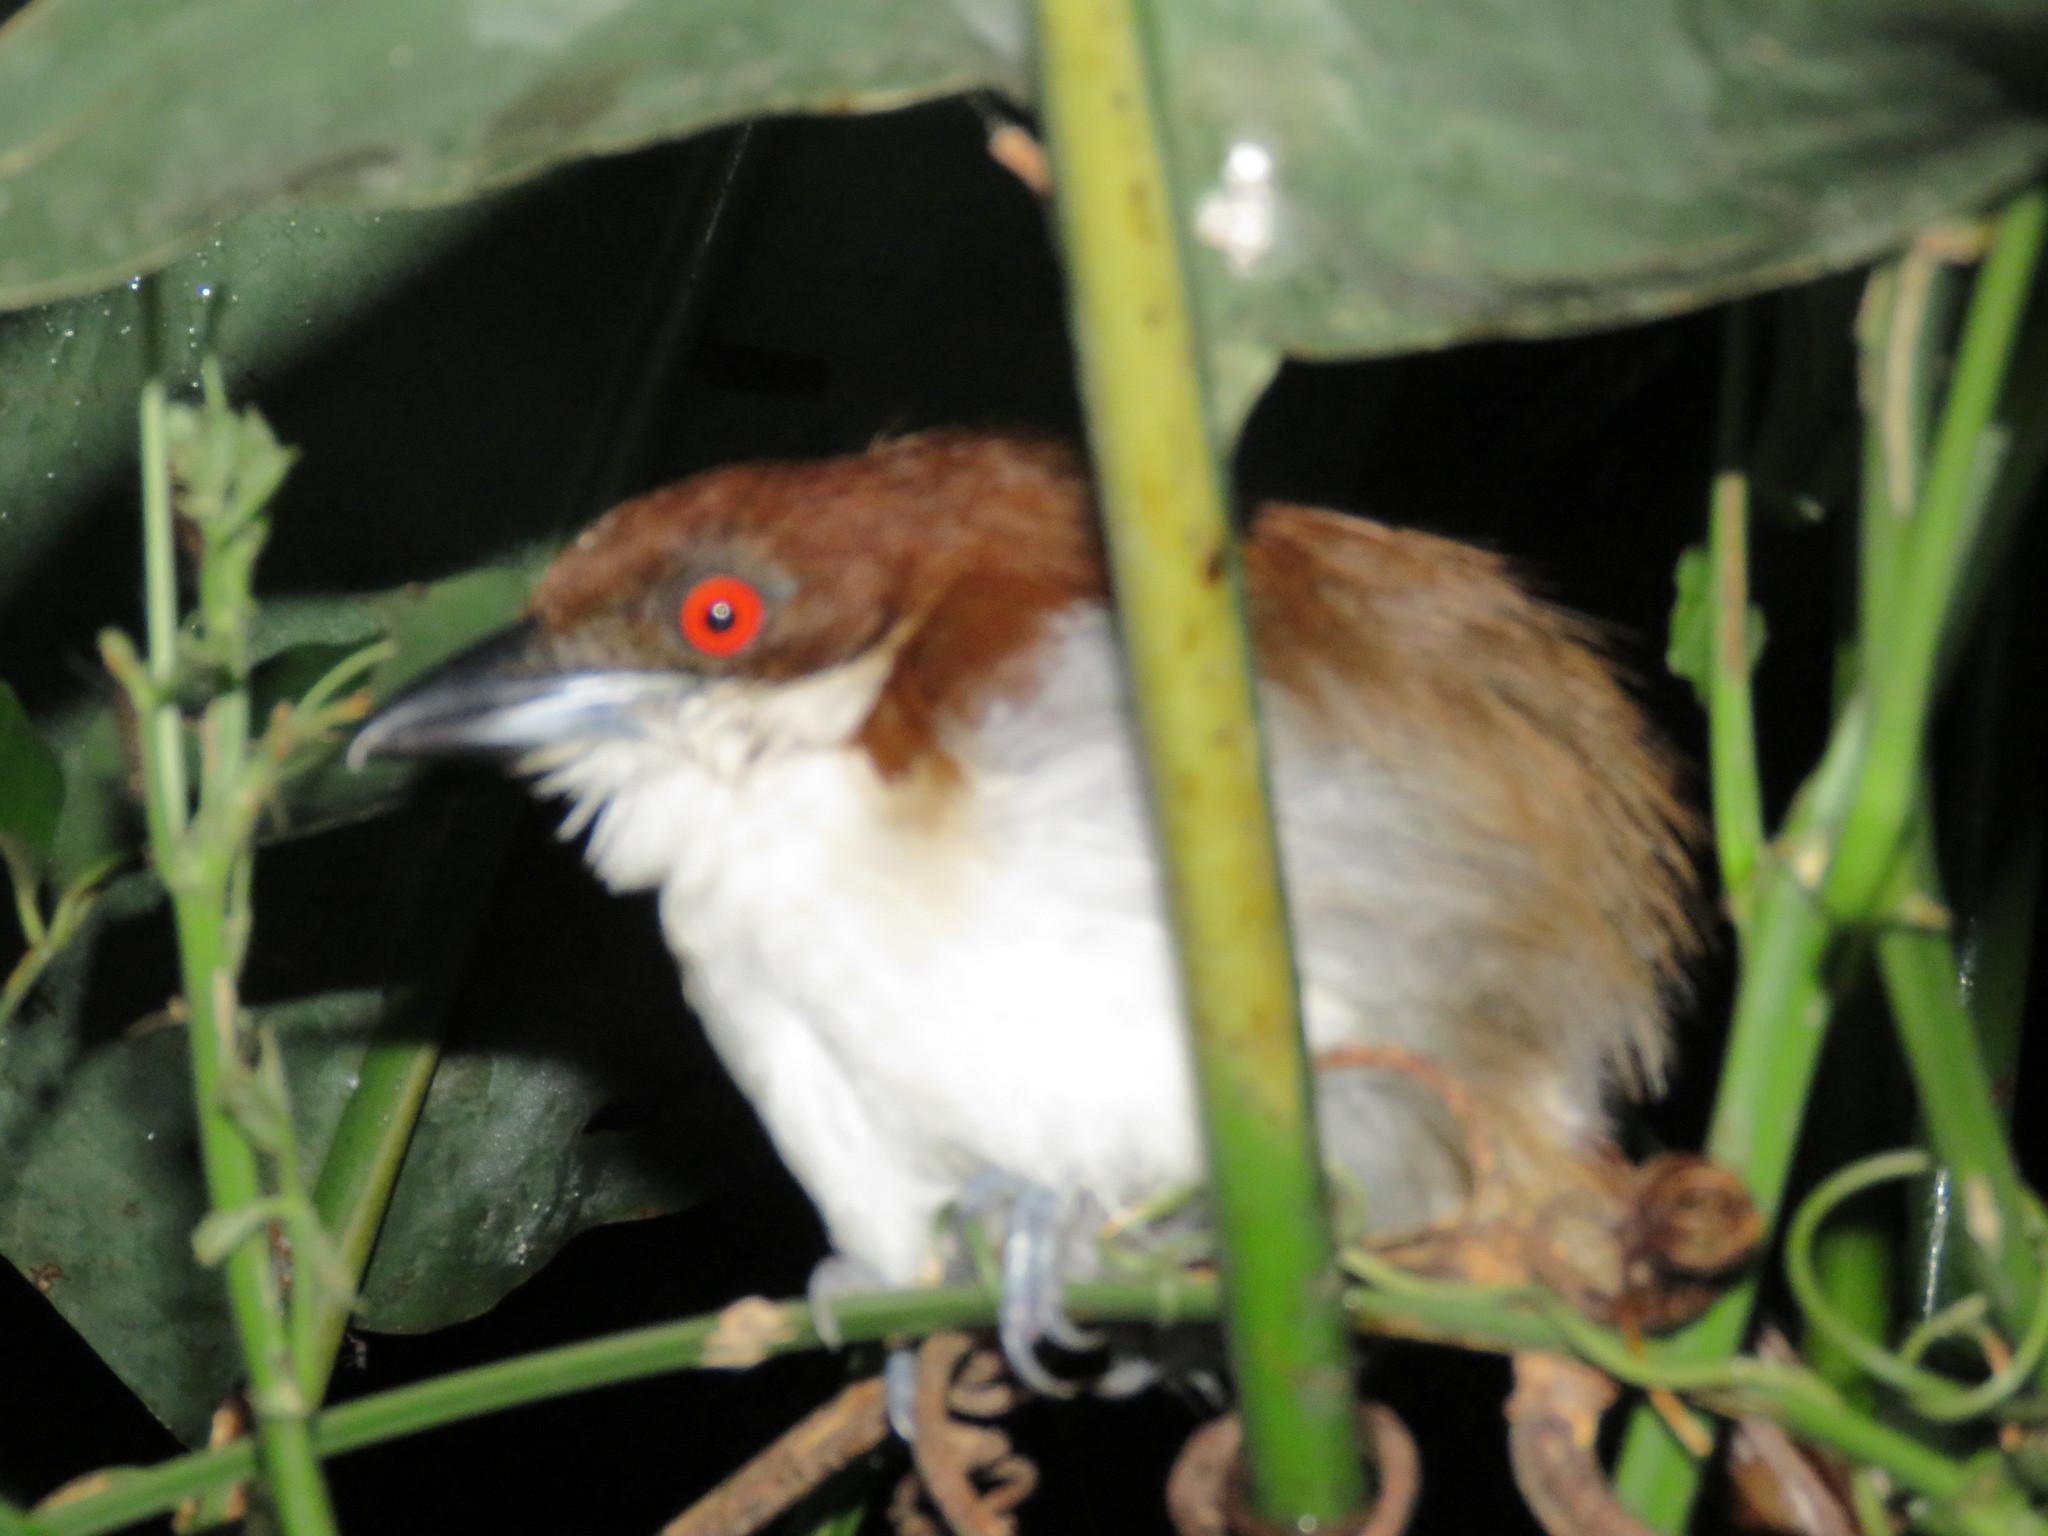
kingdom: Animalia
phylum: Chordata
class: Aves
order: Passeriformes
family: Thamnophilidae
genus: Taraba
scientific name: Taraba major
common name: Great antshrike
